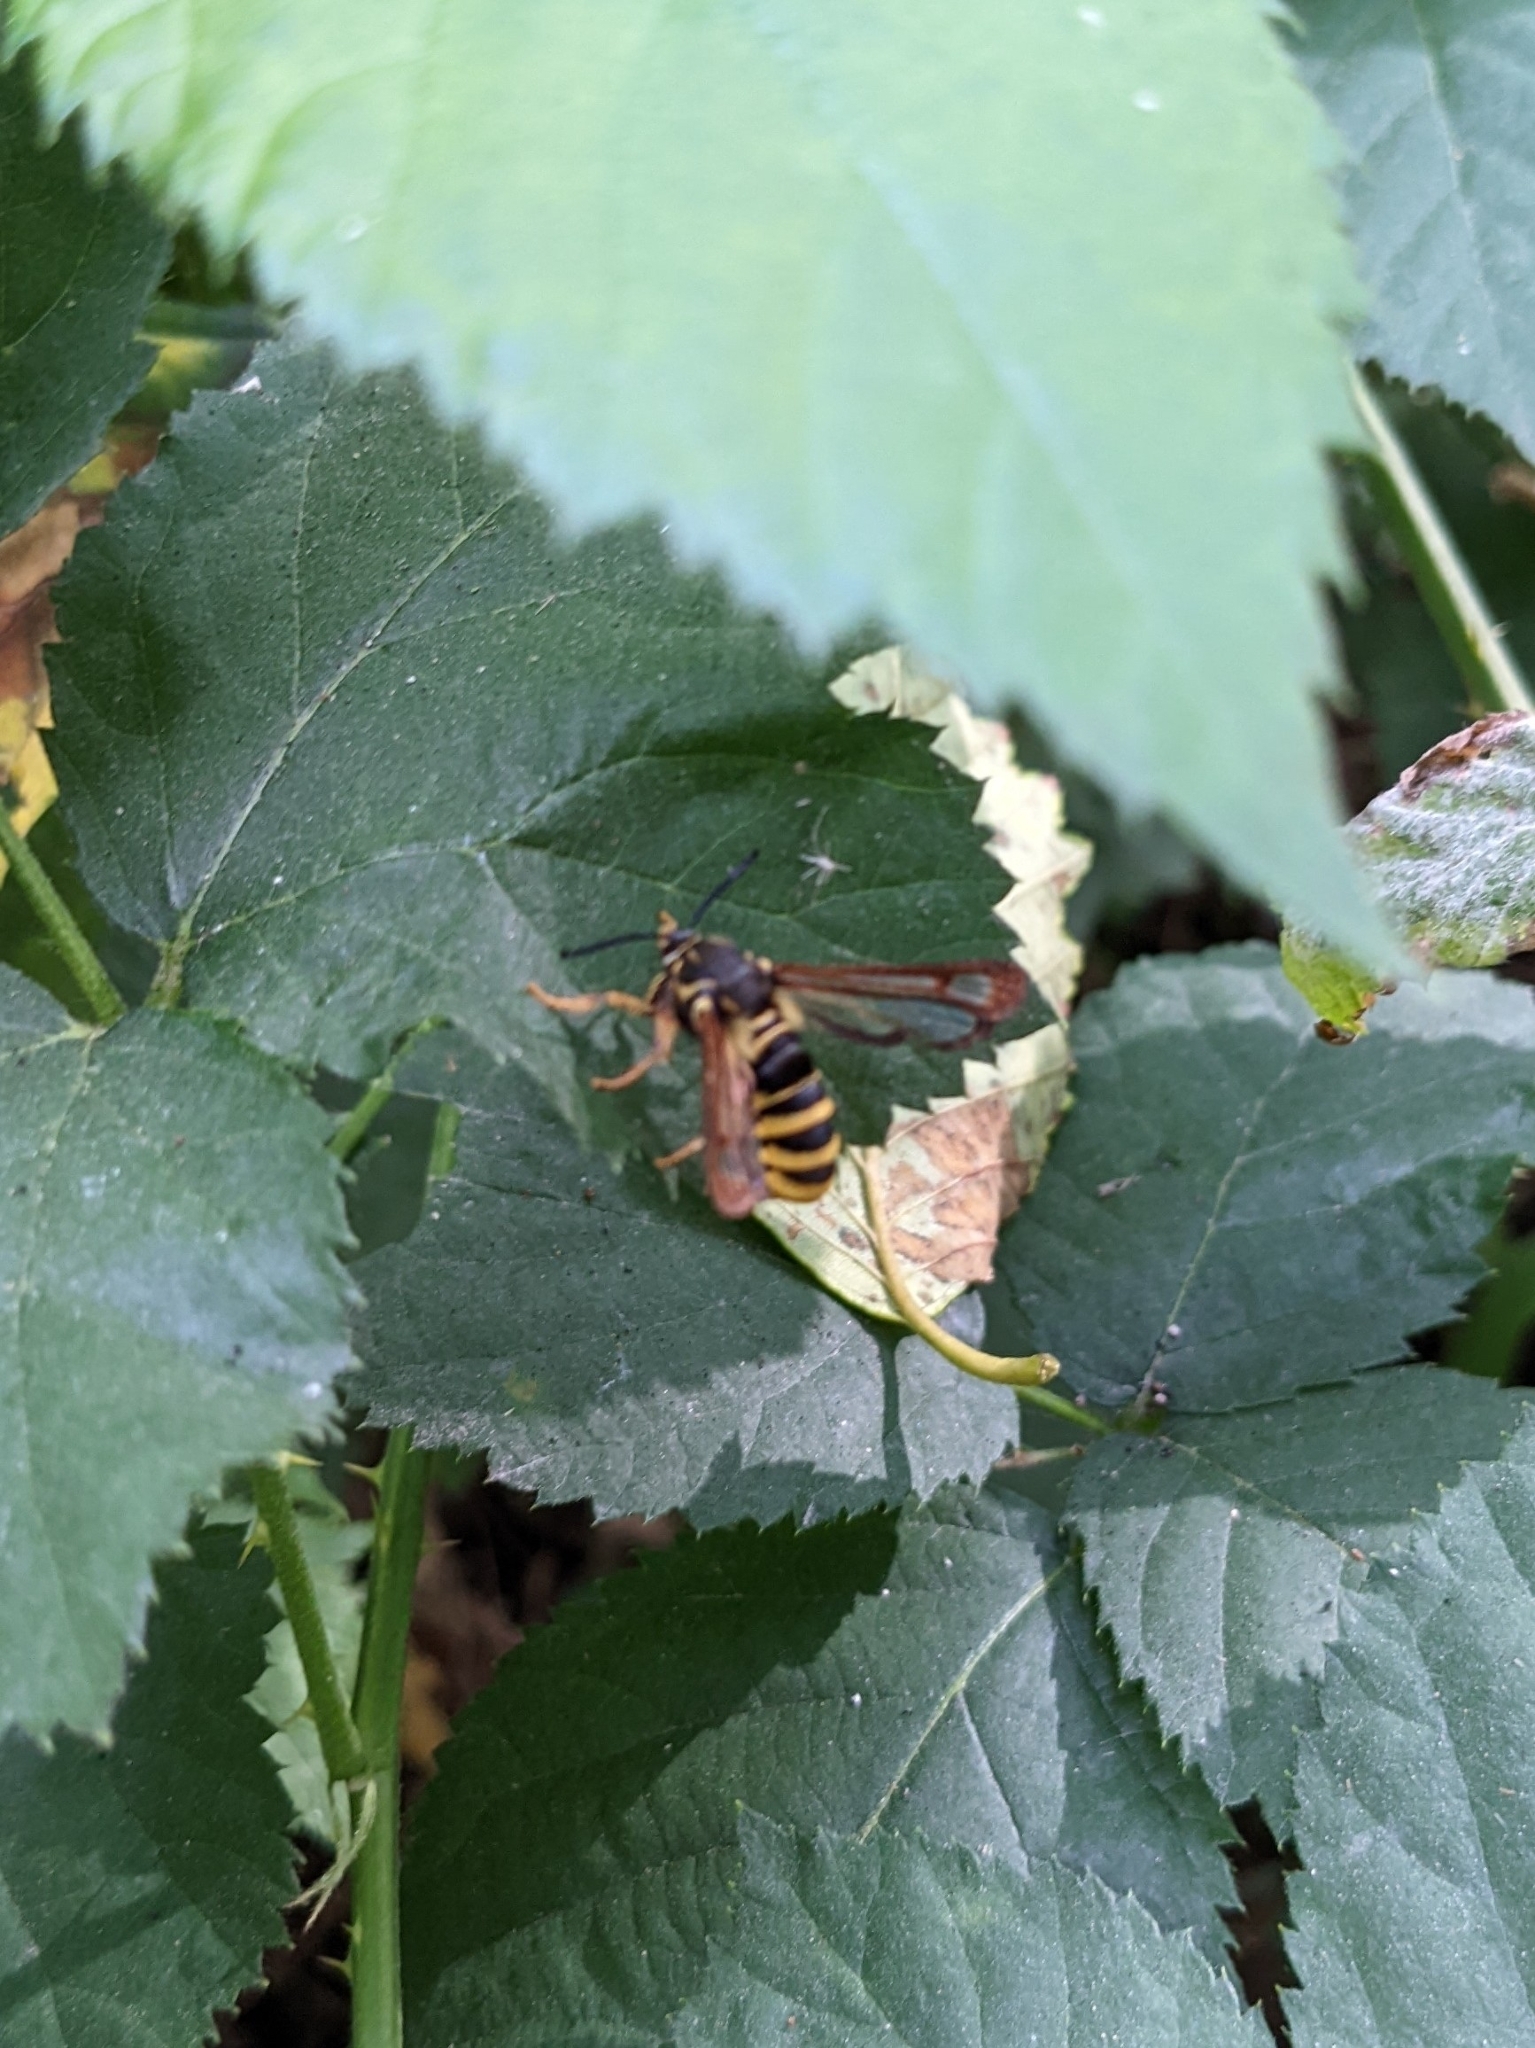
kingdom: Animalia
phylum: Arthropoda
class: Insecta
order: Lepidoptera
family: Sesiidae
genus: Pennisetia
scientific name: Pennisetia marginatum
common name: Raspberry crown borer
